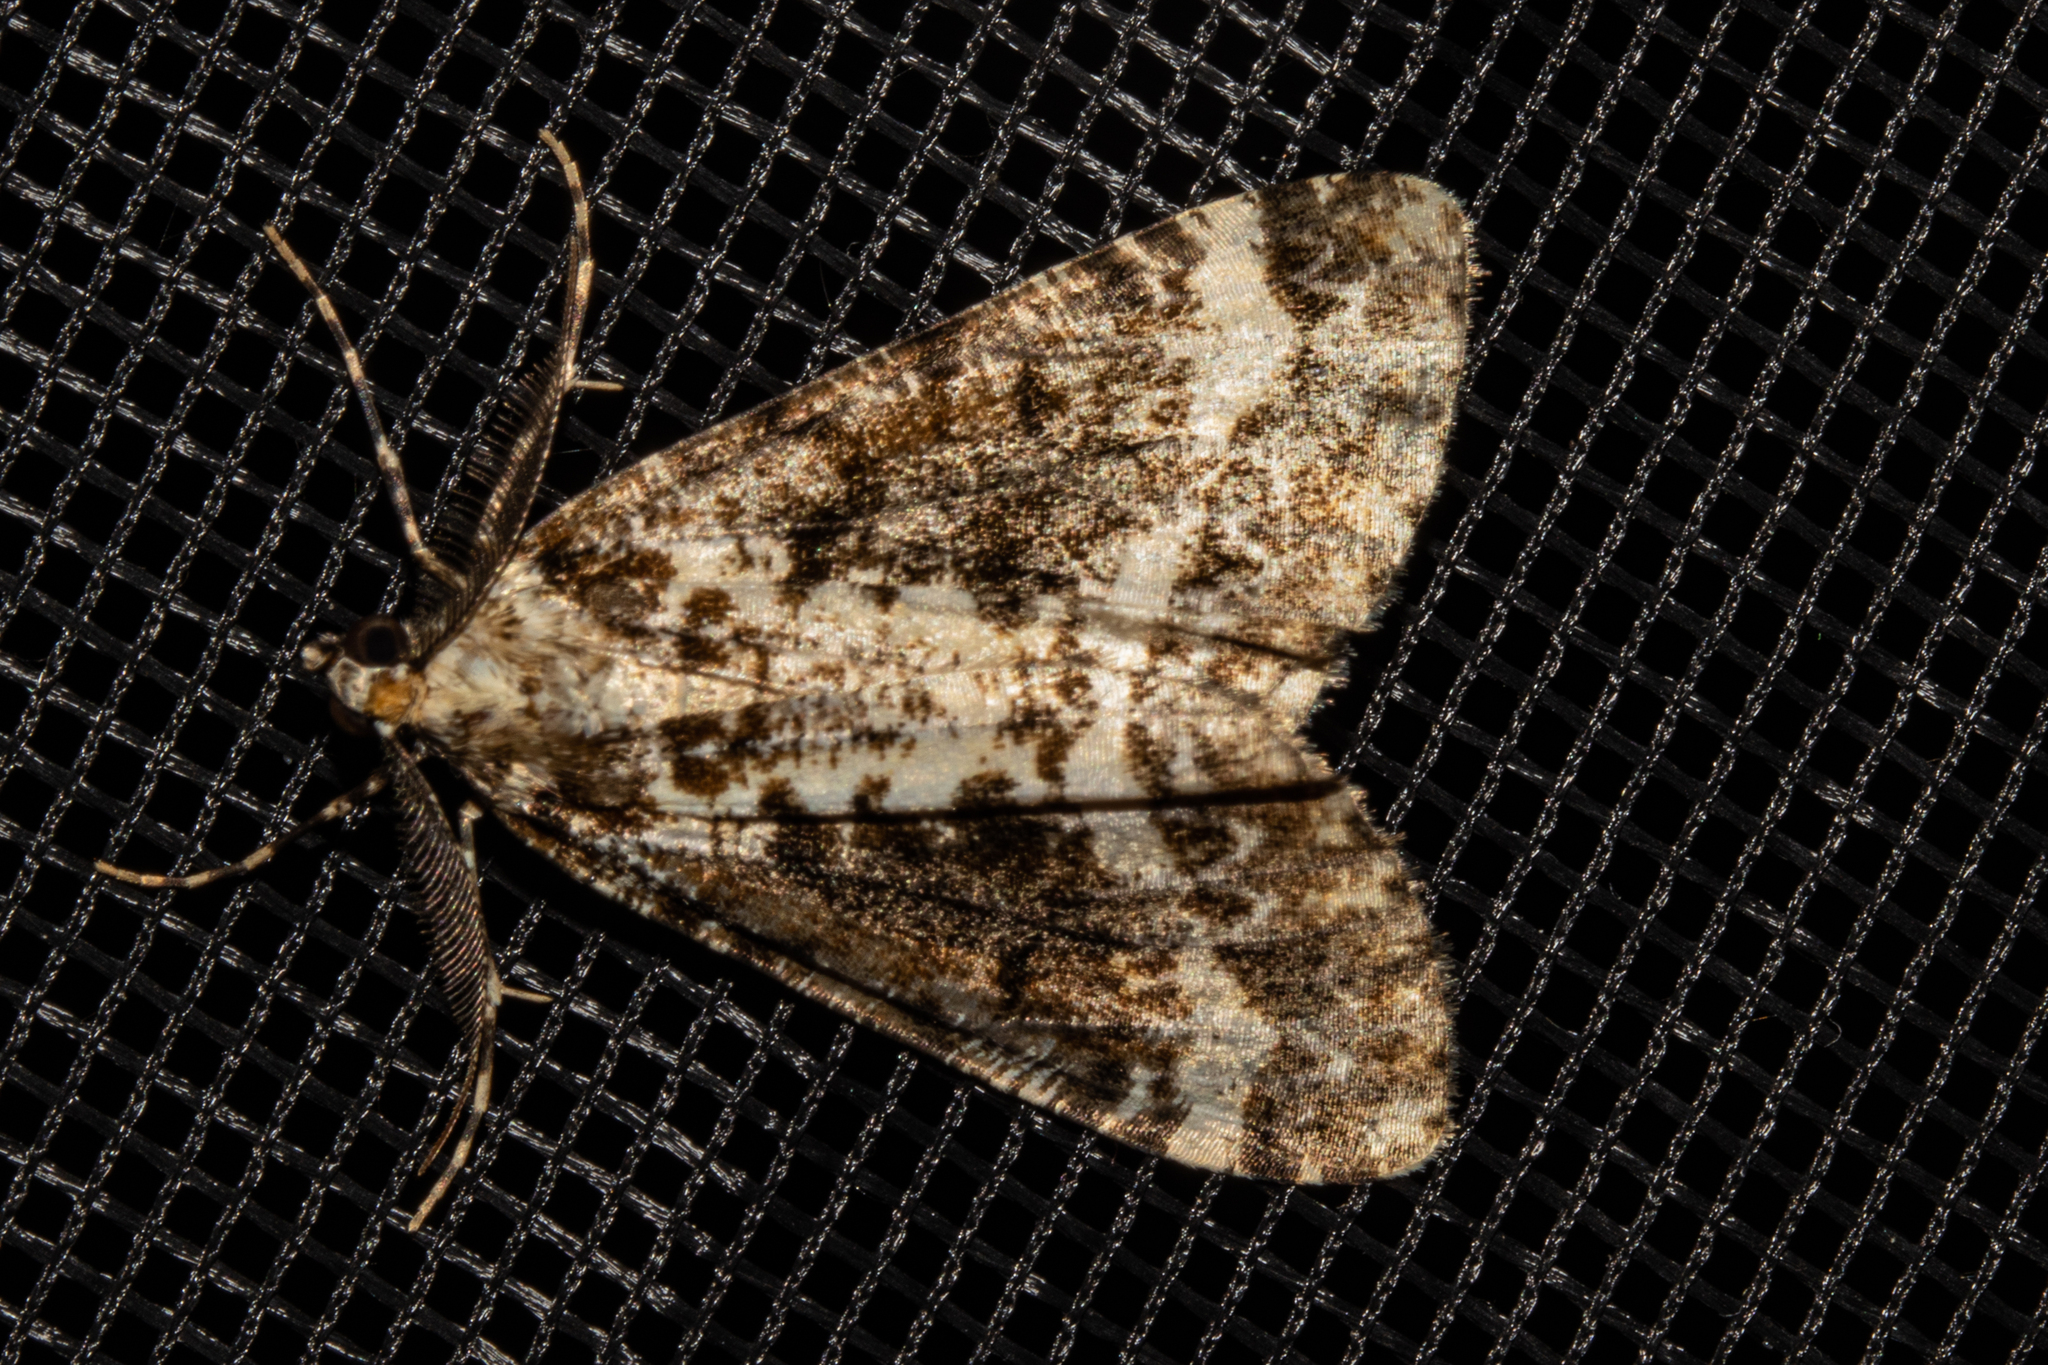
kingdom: Animalia
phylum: Arthropoda
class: Insecta
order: Lepidoptera
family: Geometridae
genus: Pseudocoremia
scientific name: Pseudocoremia leucelaea
